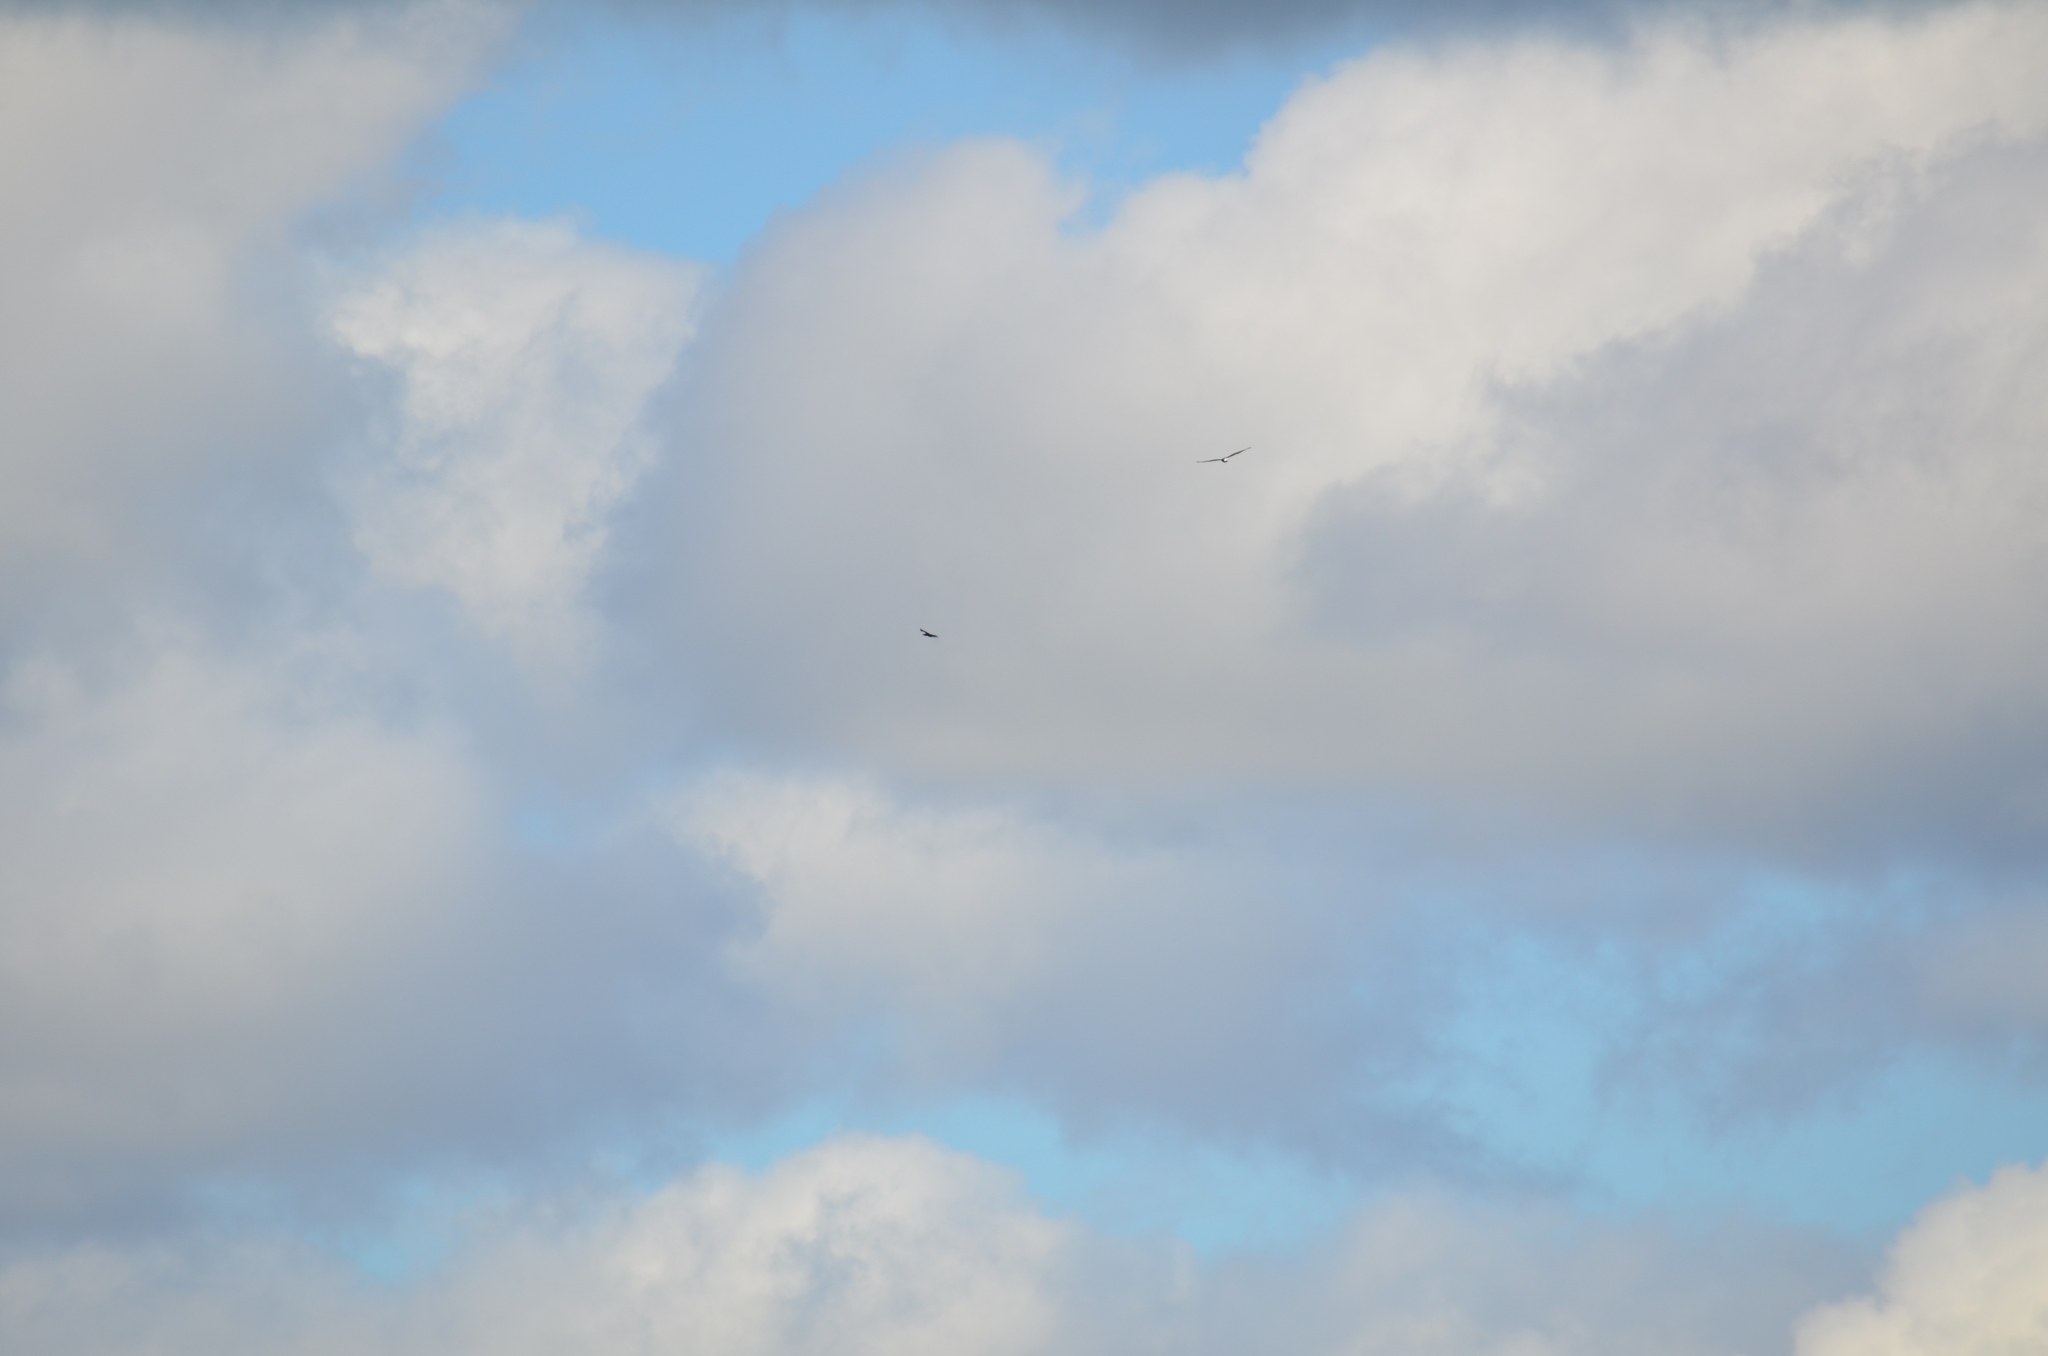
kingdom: Animalia
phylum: Chordata
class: Aves
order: Accipitriformes
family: Accipitridae
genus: Haliaeetus
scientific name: Haliaeetus leucocephalus
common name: Bald eagle
